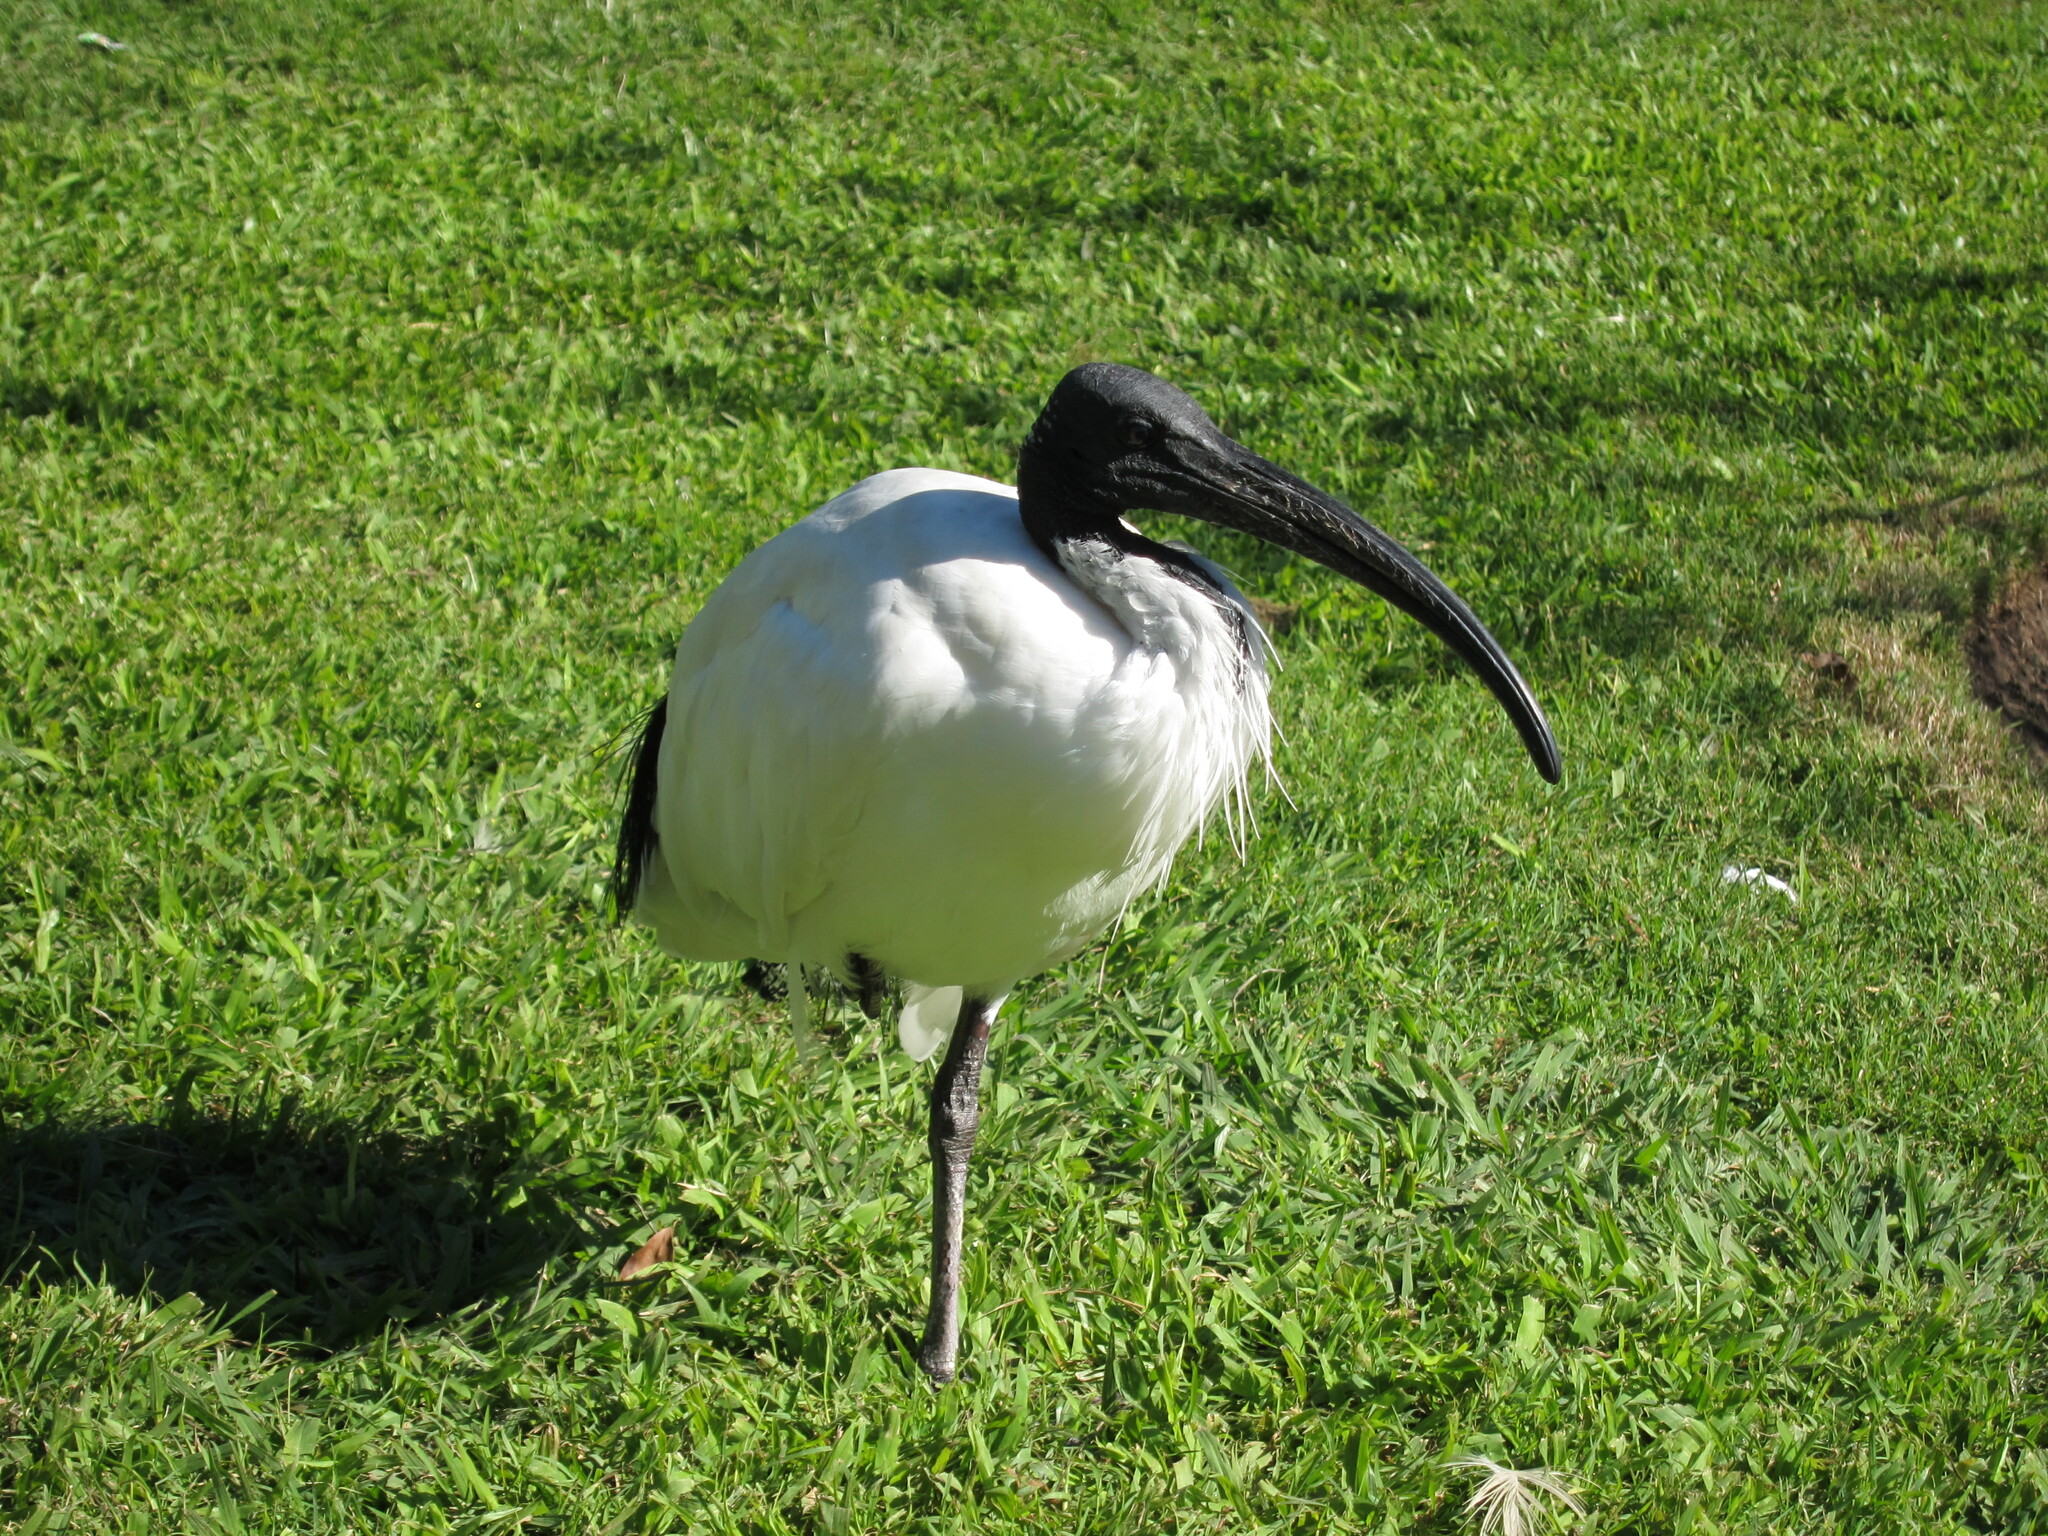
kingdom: Animalia
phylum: Chordata
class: Aves
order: Pelecaniformes
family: Threskiornithidae
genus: Threskiornis
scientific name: Threskiornis molucca
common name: Australian white ibis
